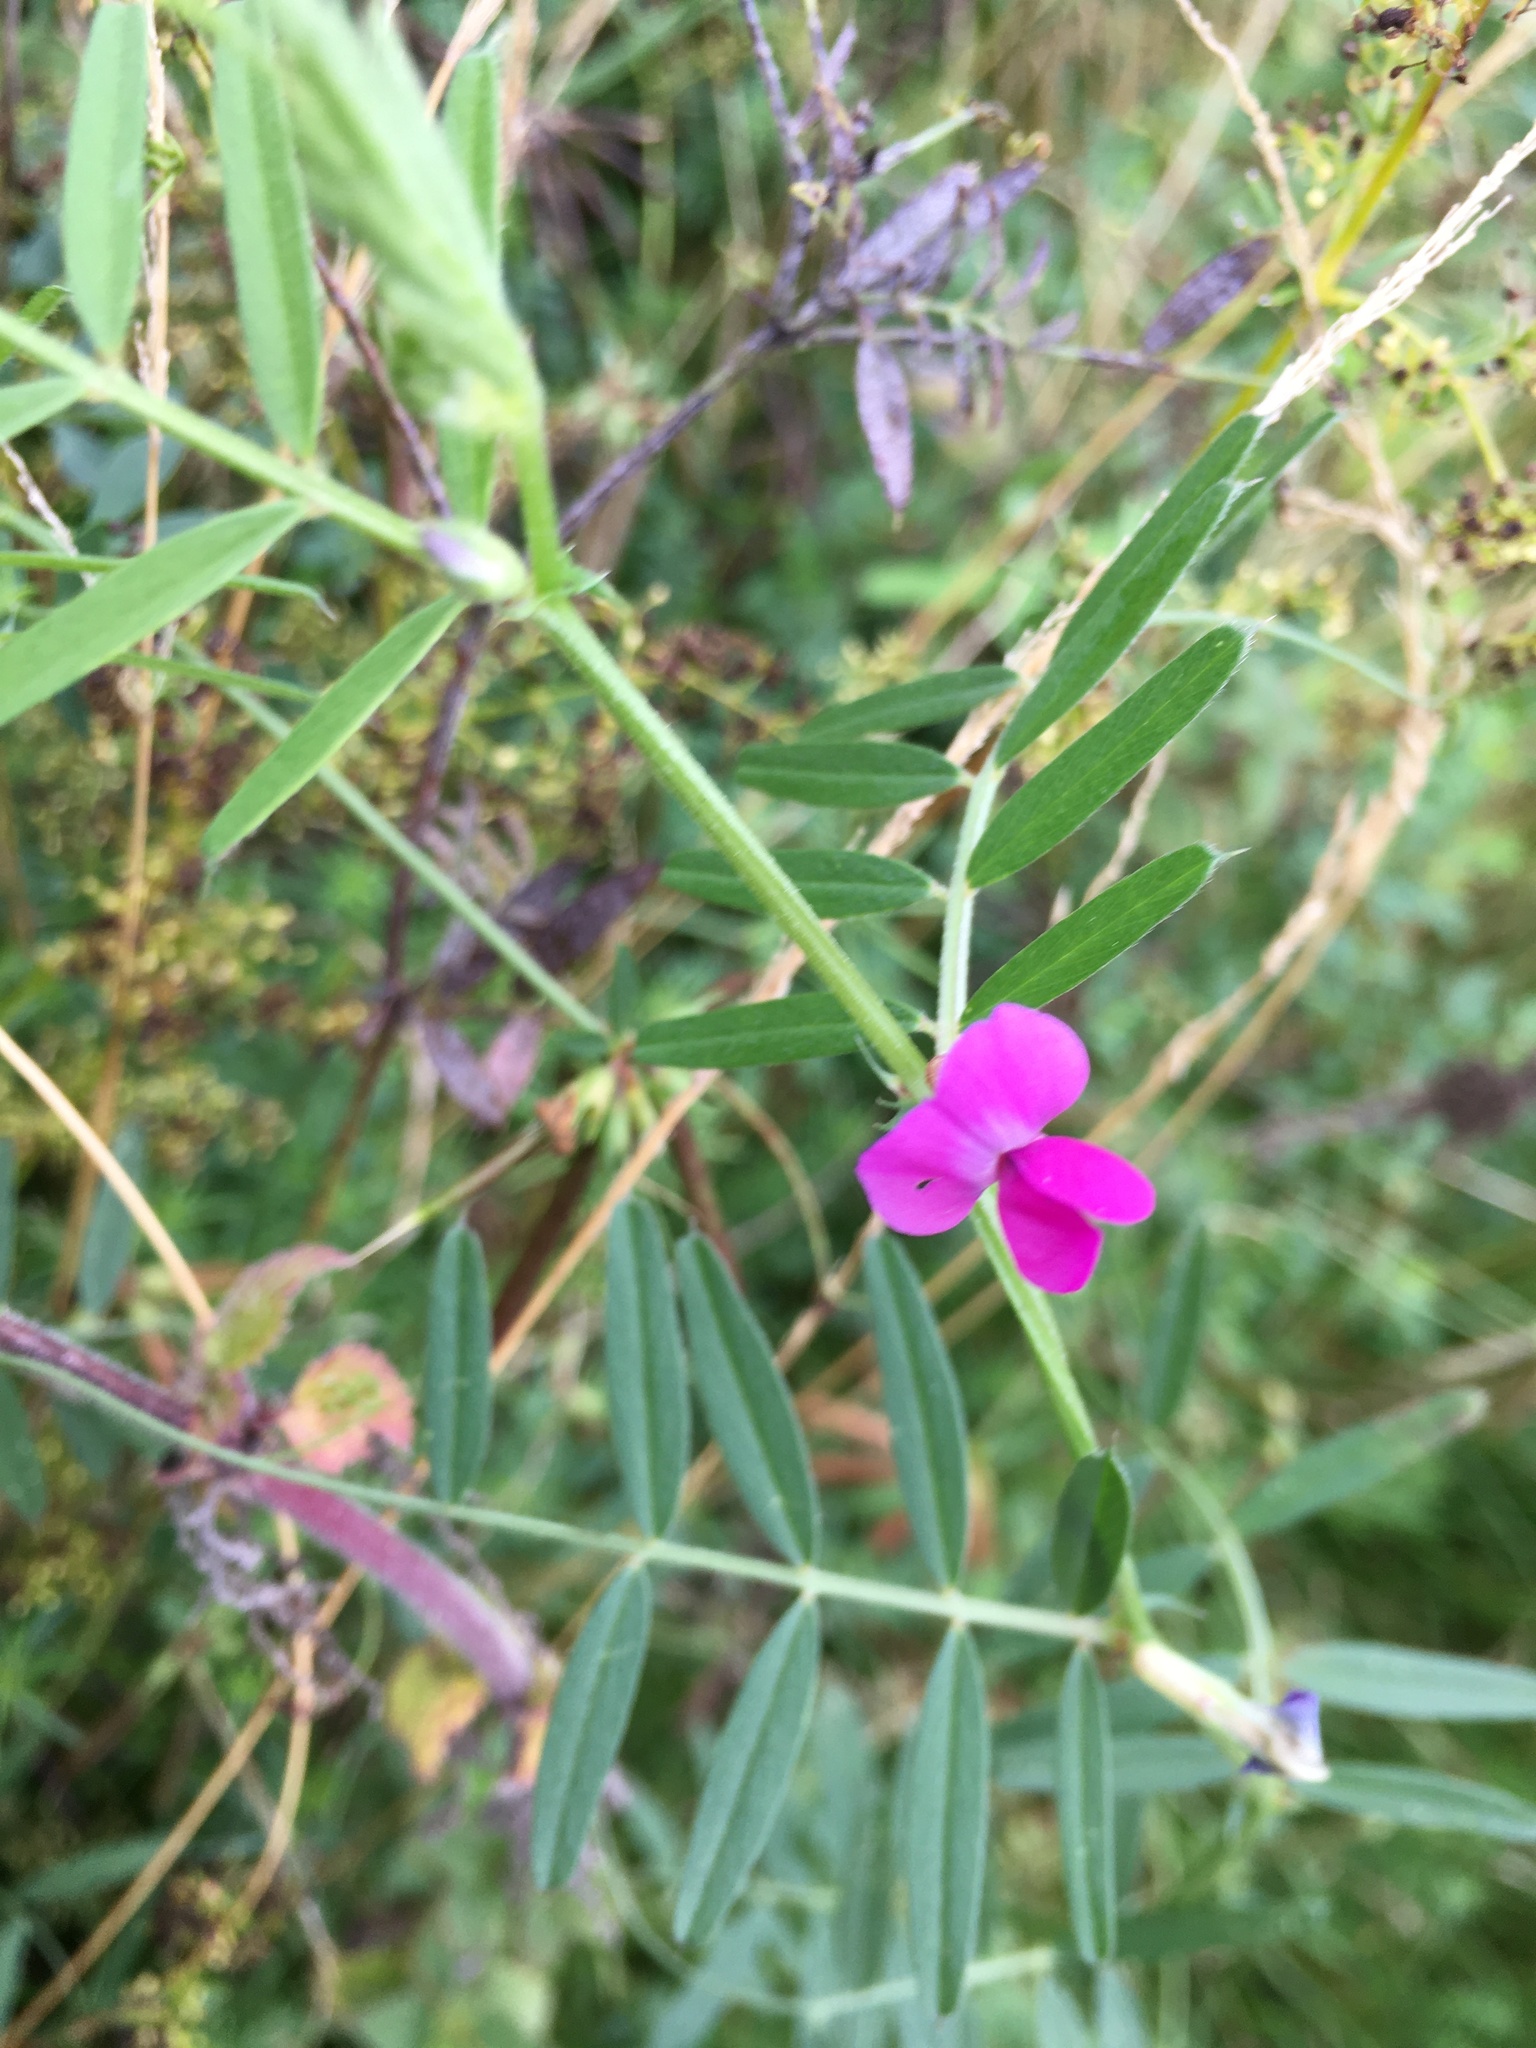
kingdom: Plantae
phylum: Tracheophyta
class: Magnoliopsida
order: Fabales
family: Fabaceae
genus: Vicia
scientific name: Vicia sativa
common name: Garden vetch
